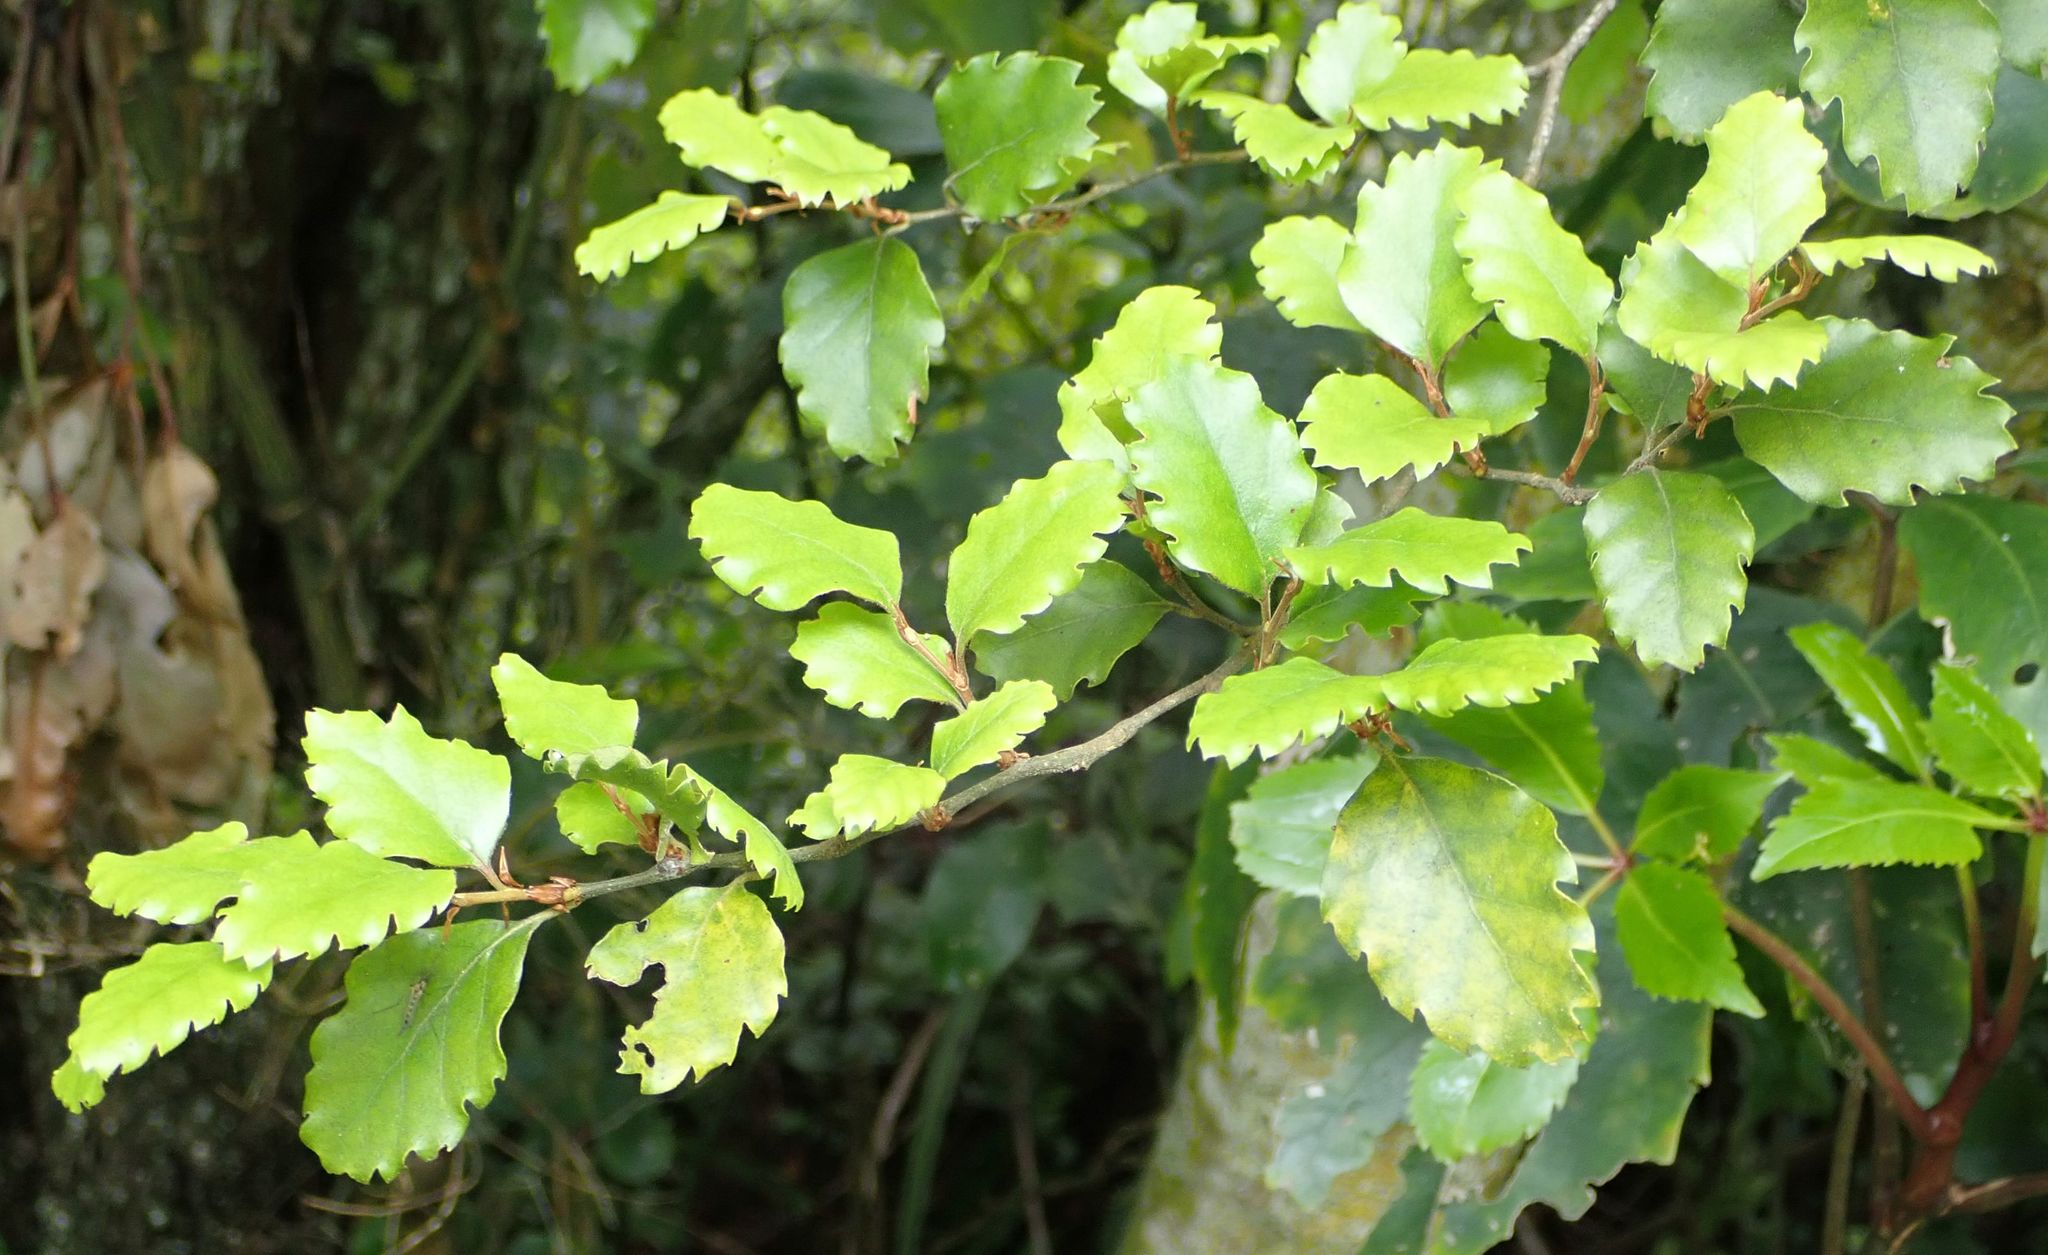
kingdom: Plantae
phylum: Tracheophyta
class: Magnoliopsida
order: Fagales
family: Nothofagaceae
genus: Nothofagus
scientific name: Nothofagus fusca
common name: Red beech
